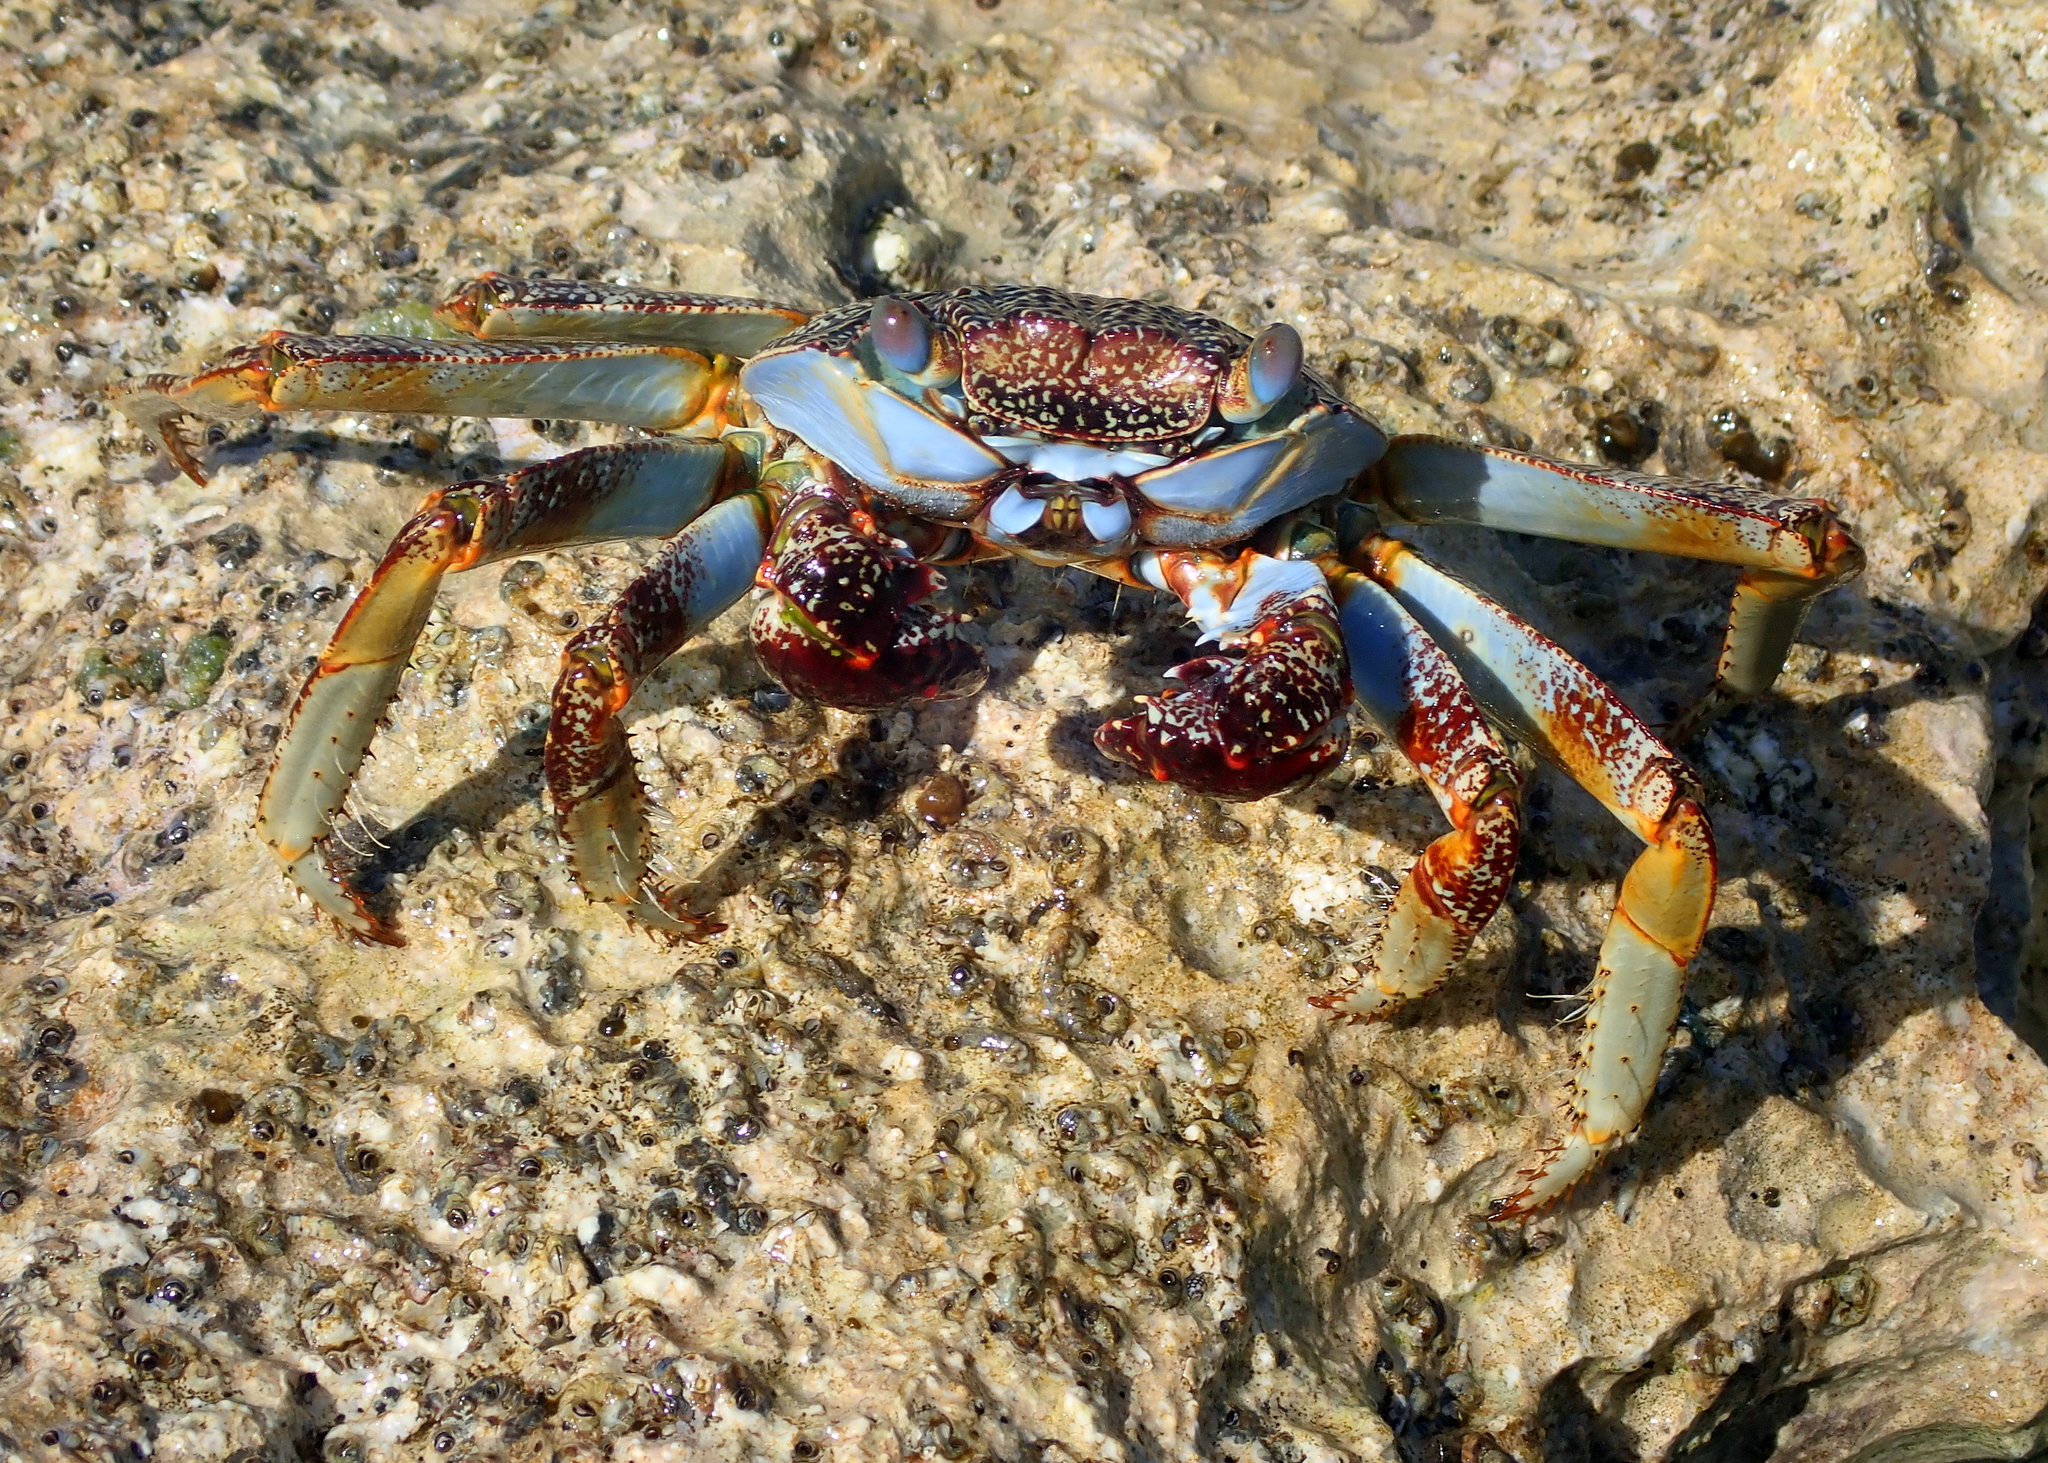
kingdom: Animalia
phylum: Arthropoda
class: Malacostraca
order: Decapoda
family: Grapsidae
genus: Grapsus
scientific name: Grapsus grapsus
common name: Sally lightfoot
